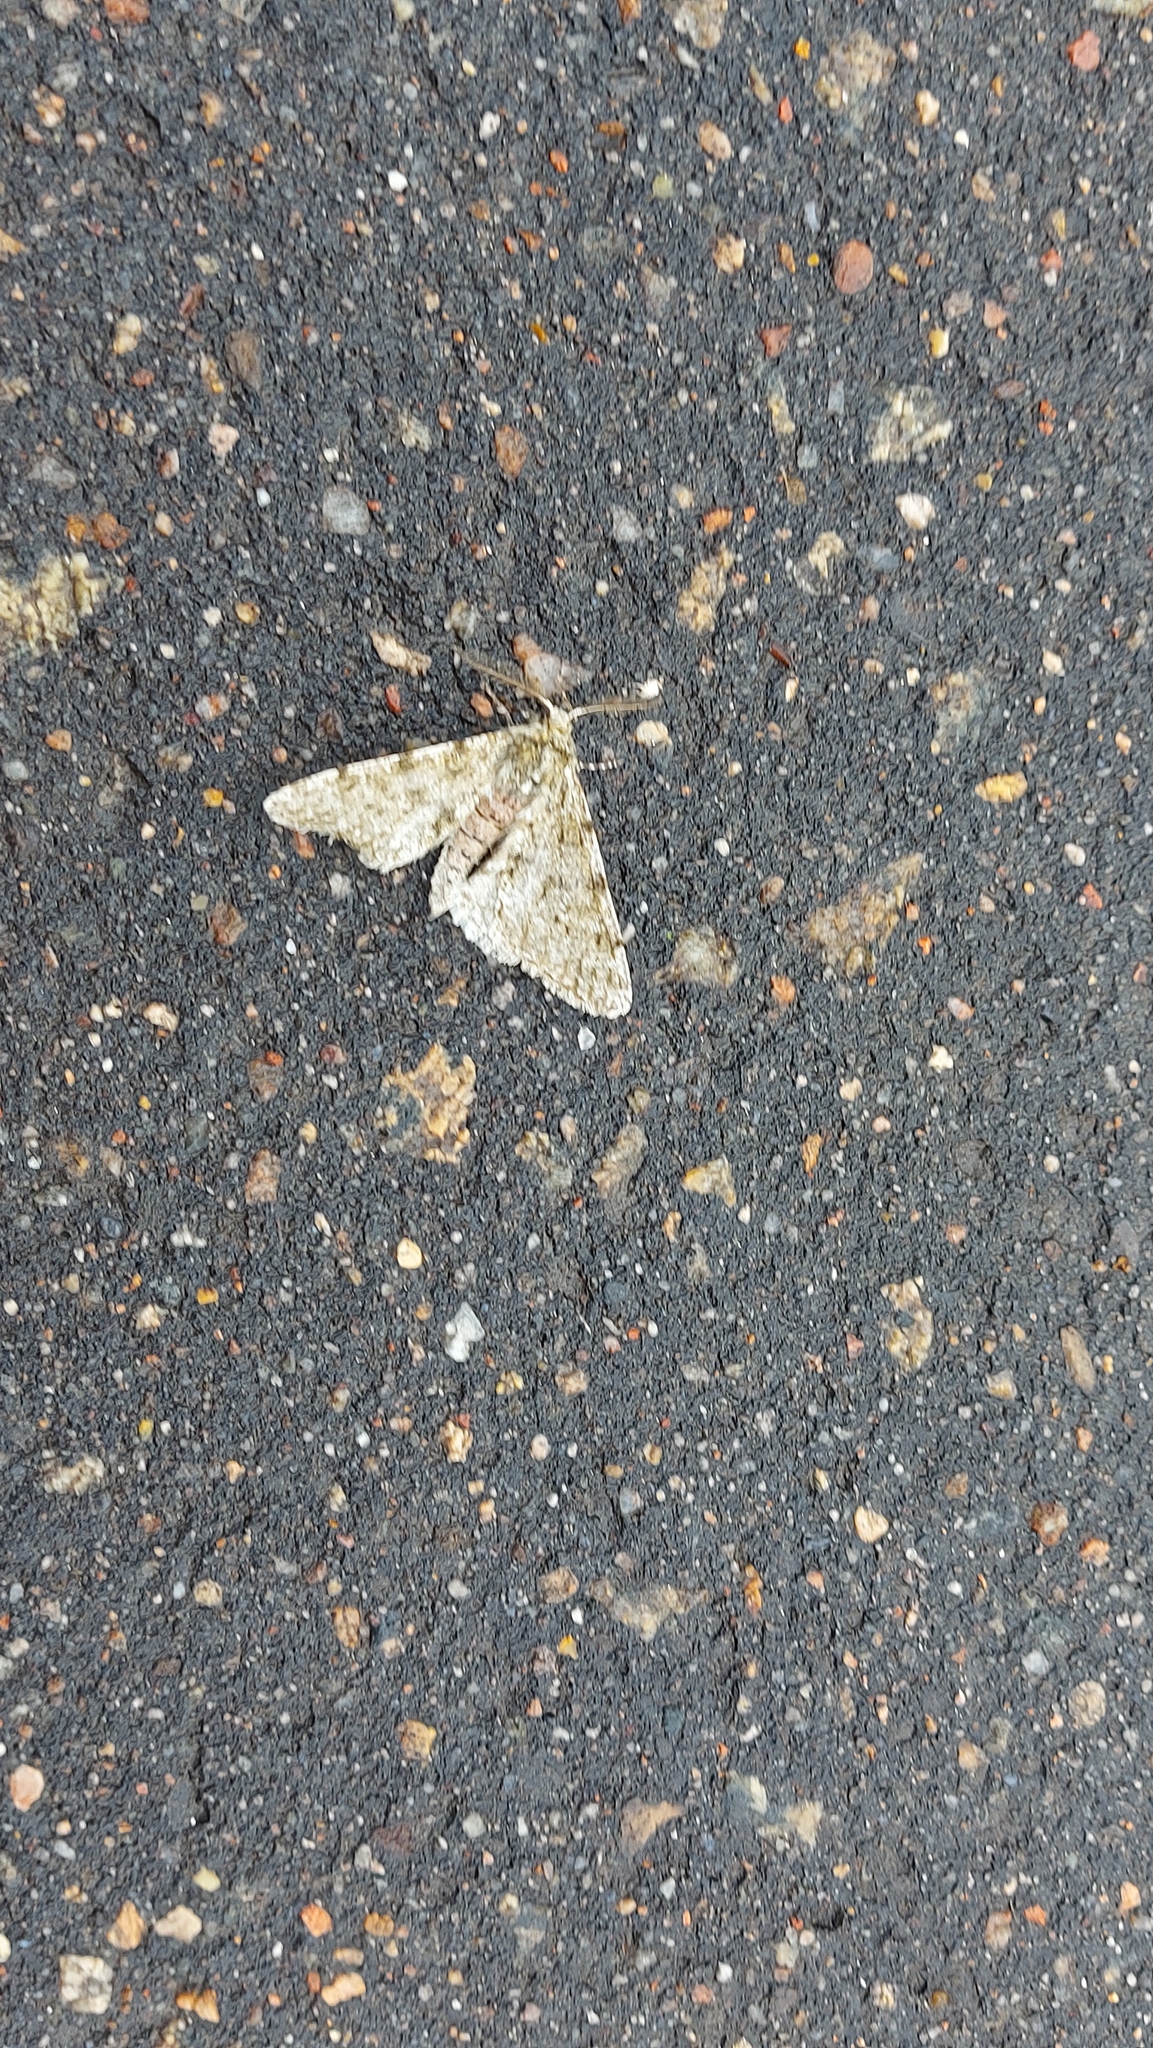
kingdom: Animalia
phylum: Arthropoda
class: Insecta
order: Lepidoptera
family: Geometridae
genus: Phigalia
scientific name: Phigalia pilosaria
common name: Pale brindled beauty
